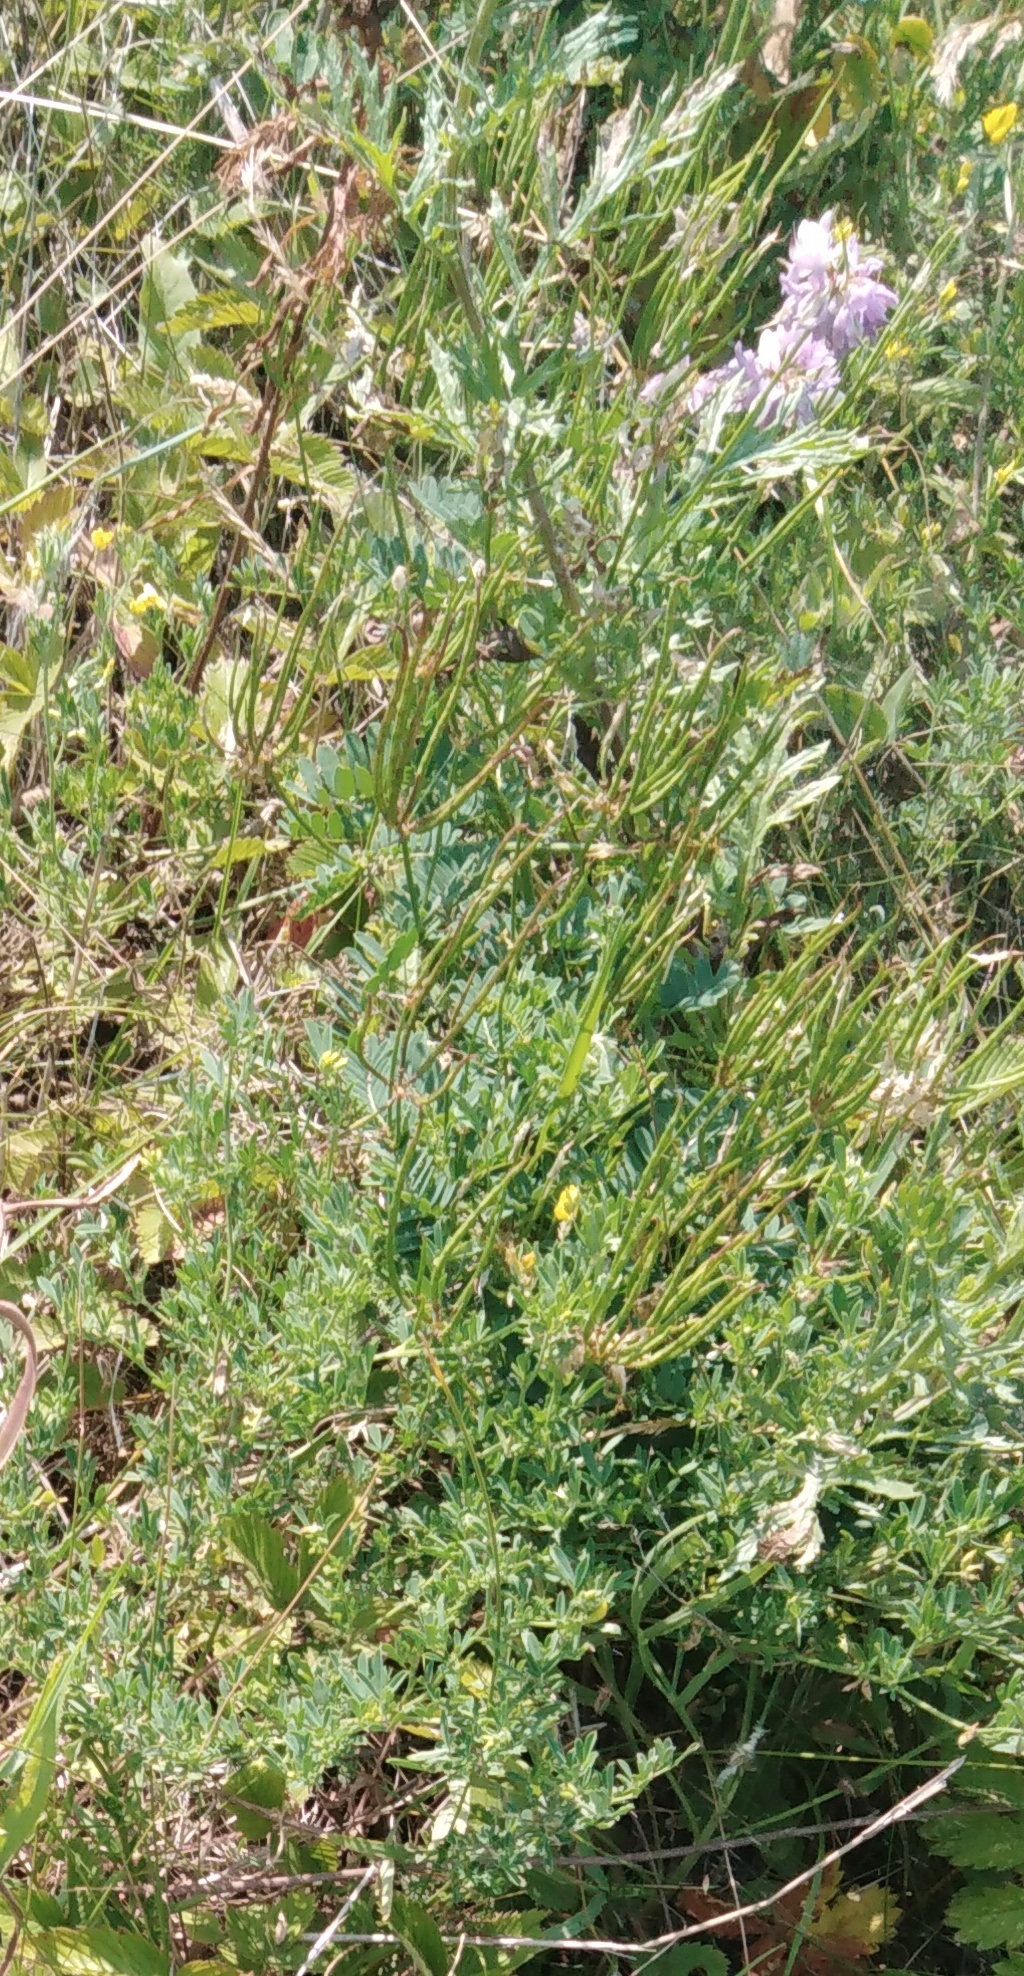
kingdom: Plantae
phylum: Tracheophyta
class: Magnoliopsida
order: Fabales
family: Fabaceae
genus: Coronilla
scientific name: Coronilla varia
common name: Crownvetch
